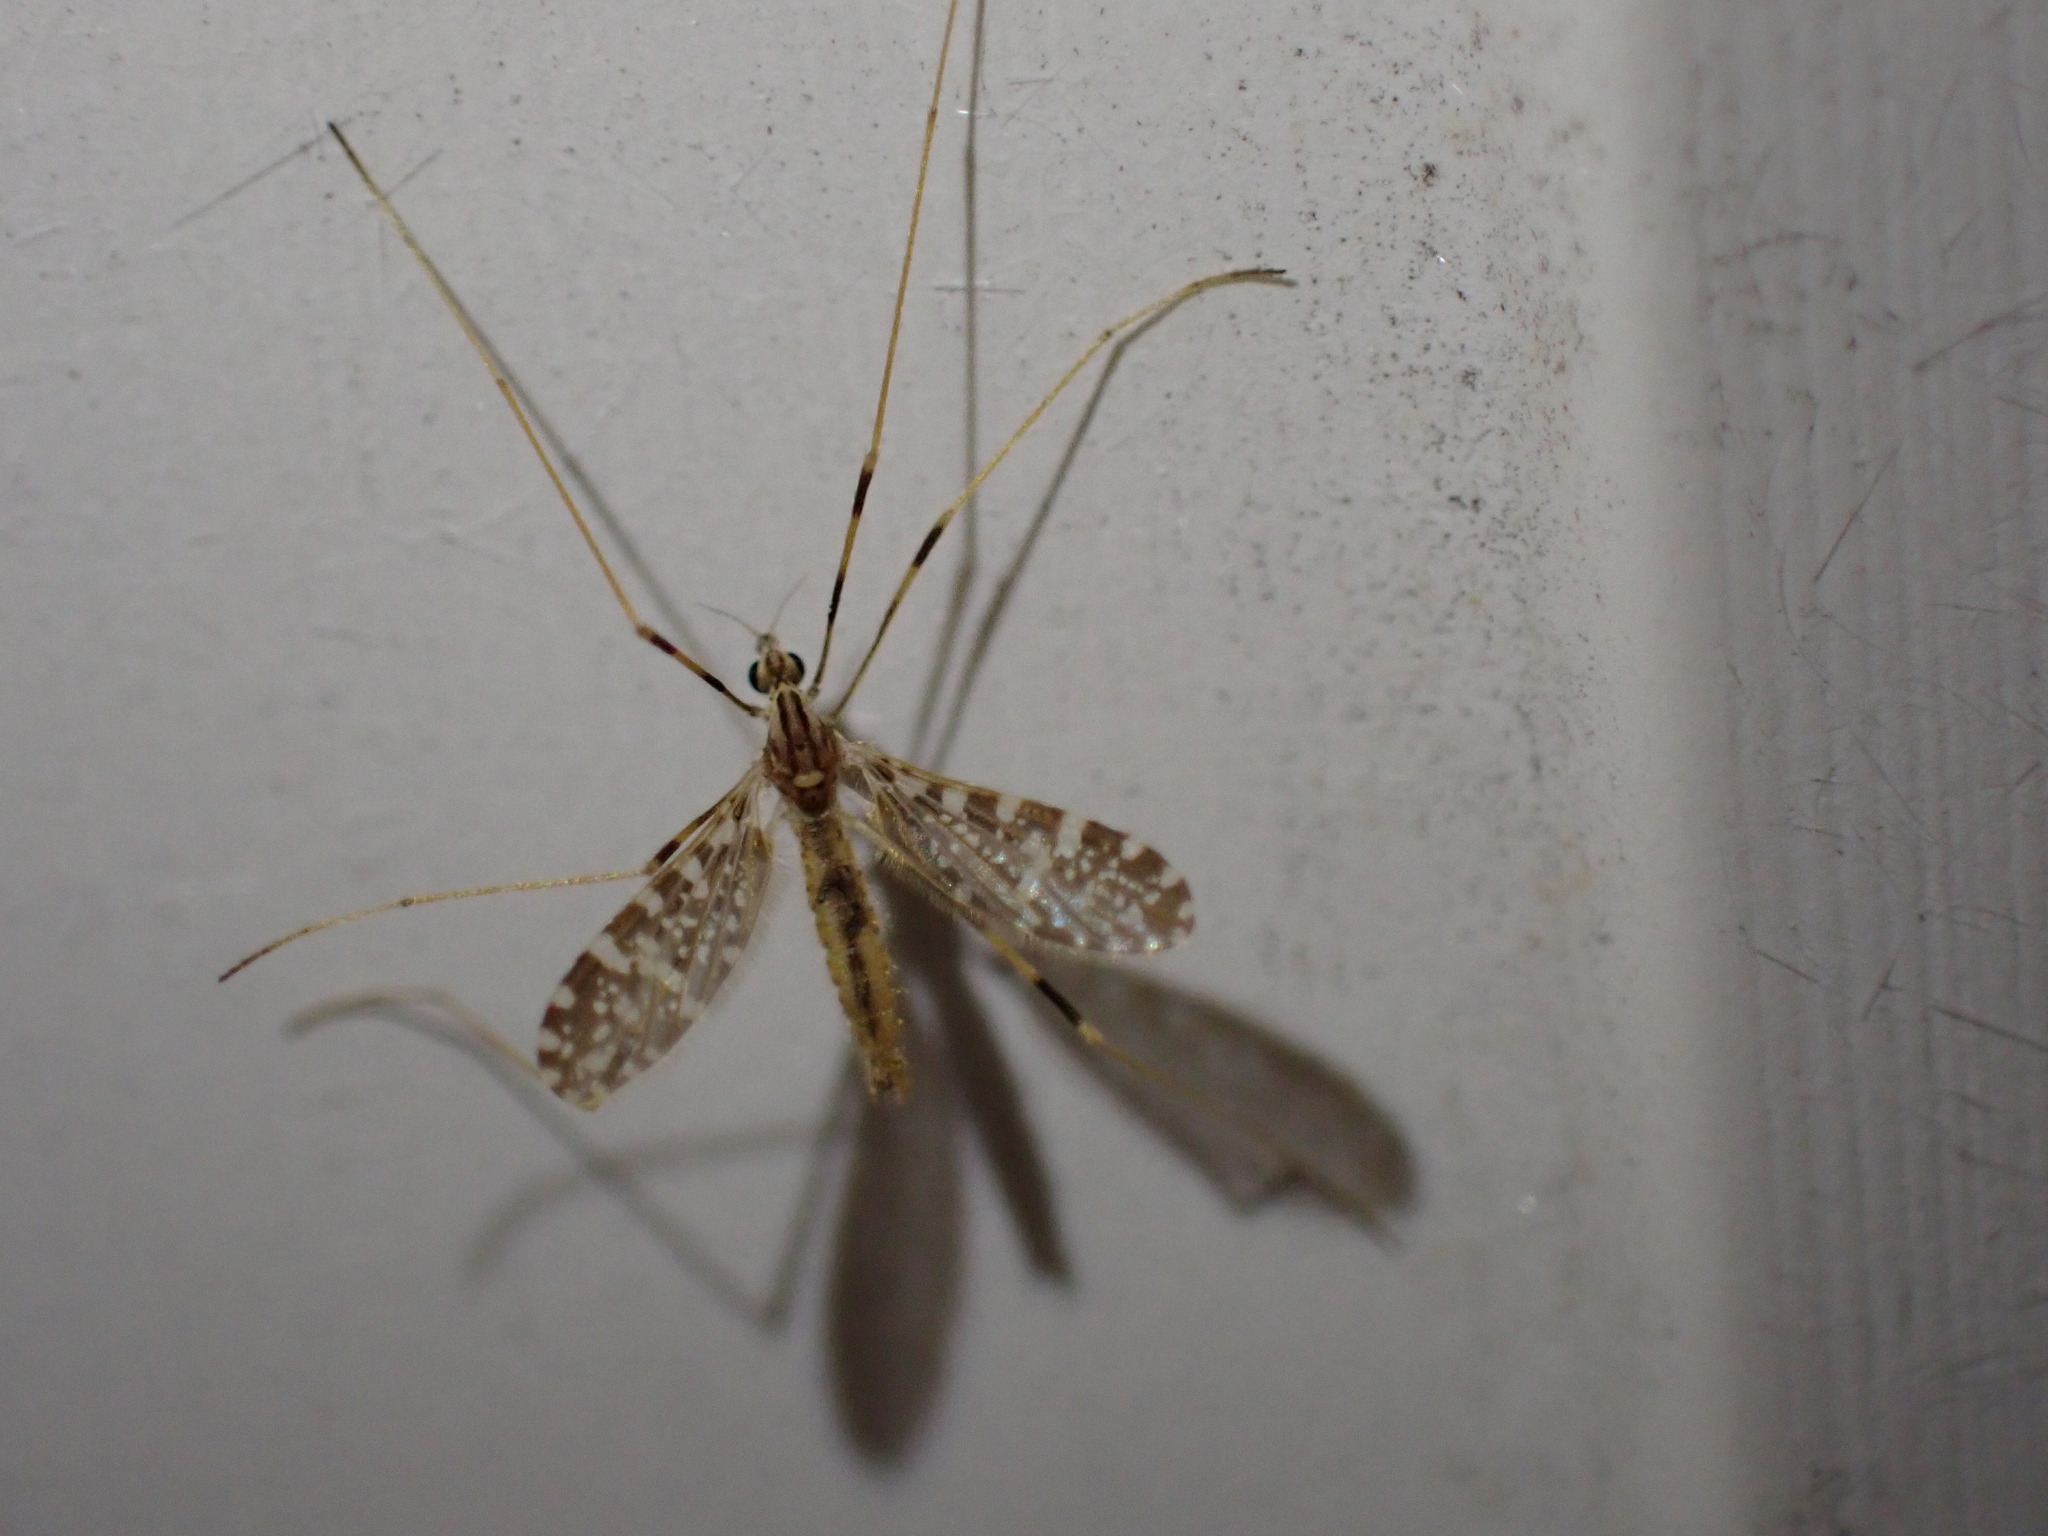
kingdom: Animalia
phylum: Arthropoda
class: Insecta
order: Diptera
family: Limoniidae
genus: Erioptera
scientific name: Erioptera caliptera
